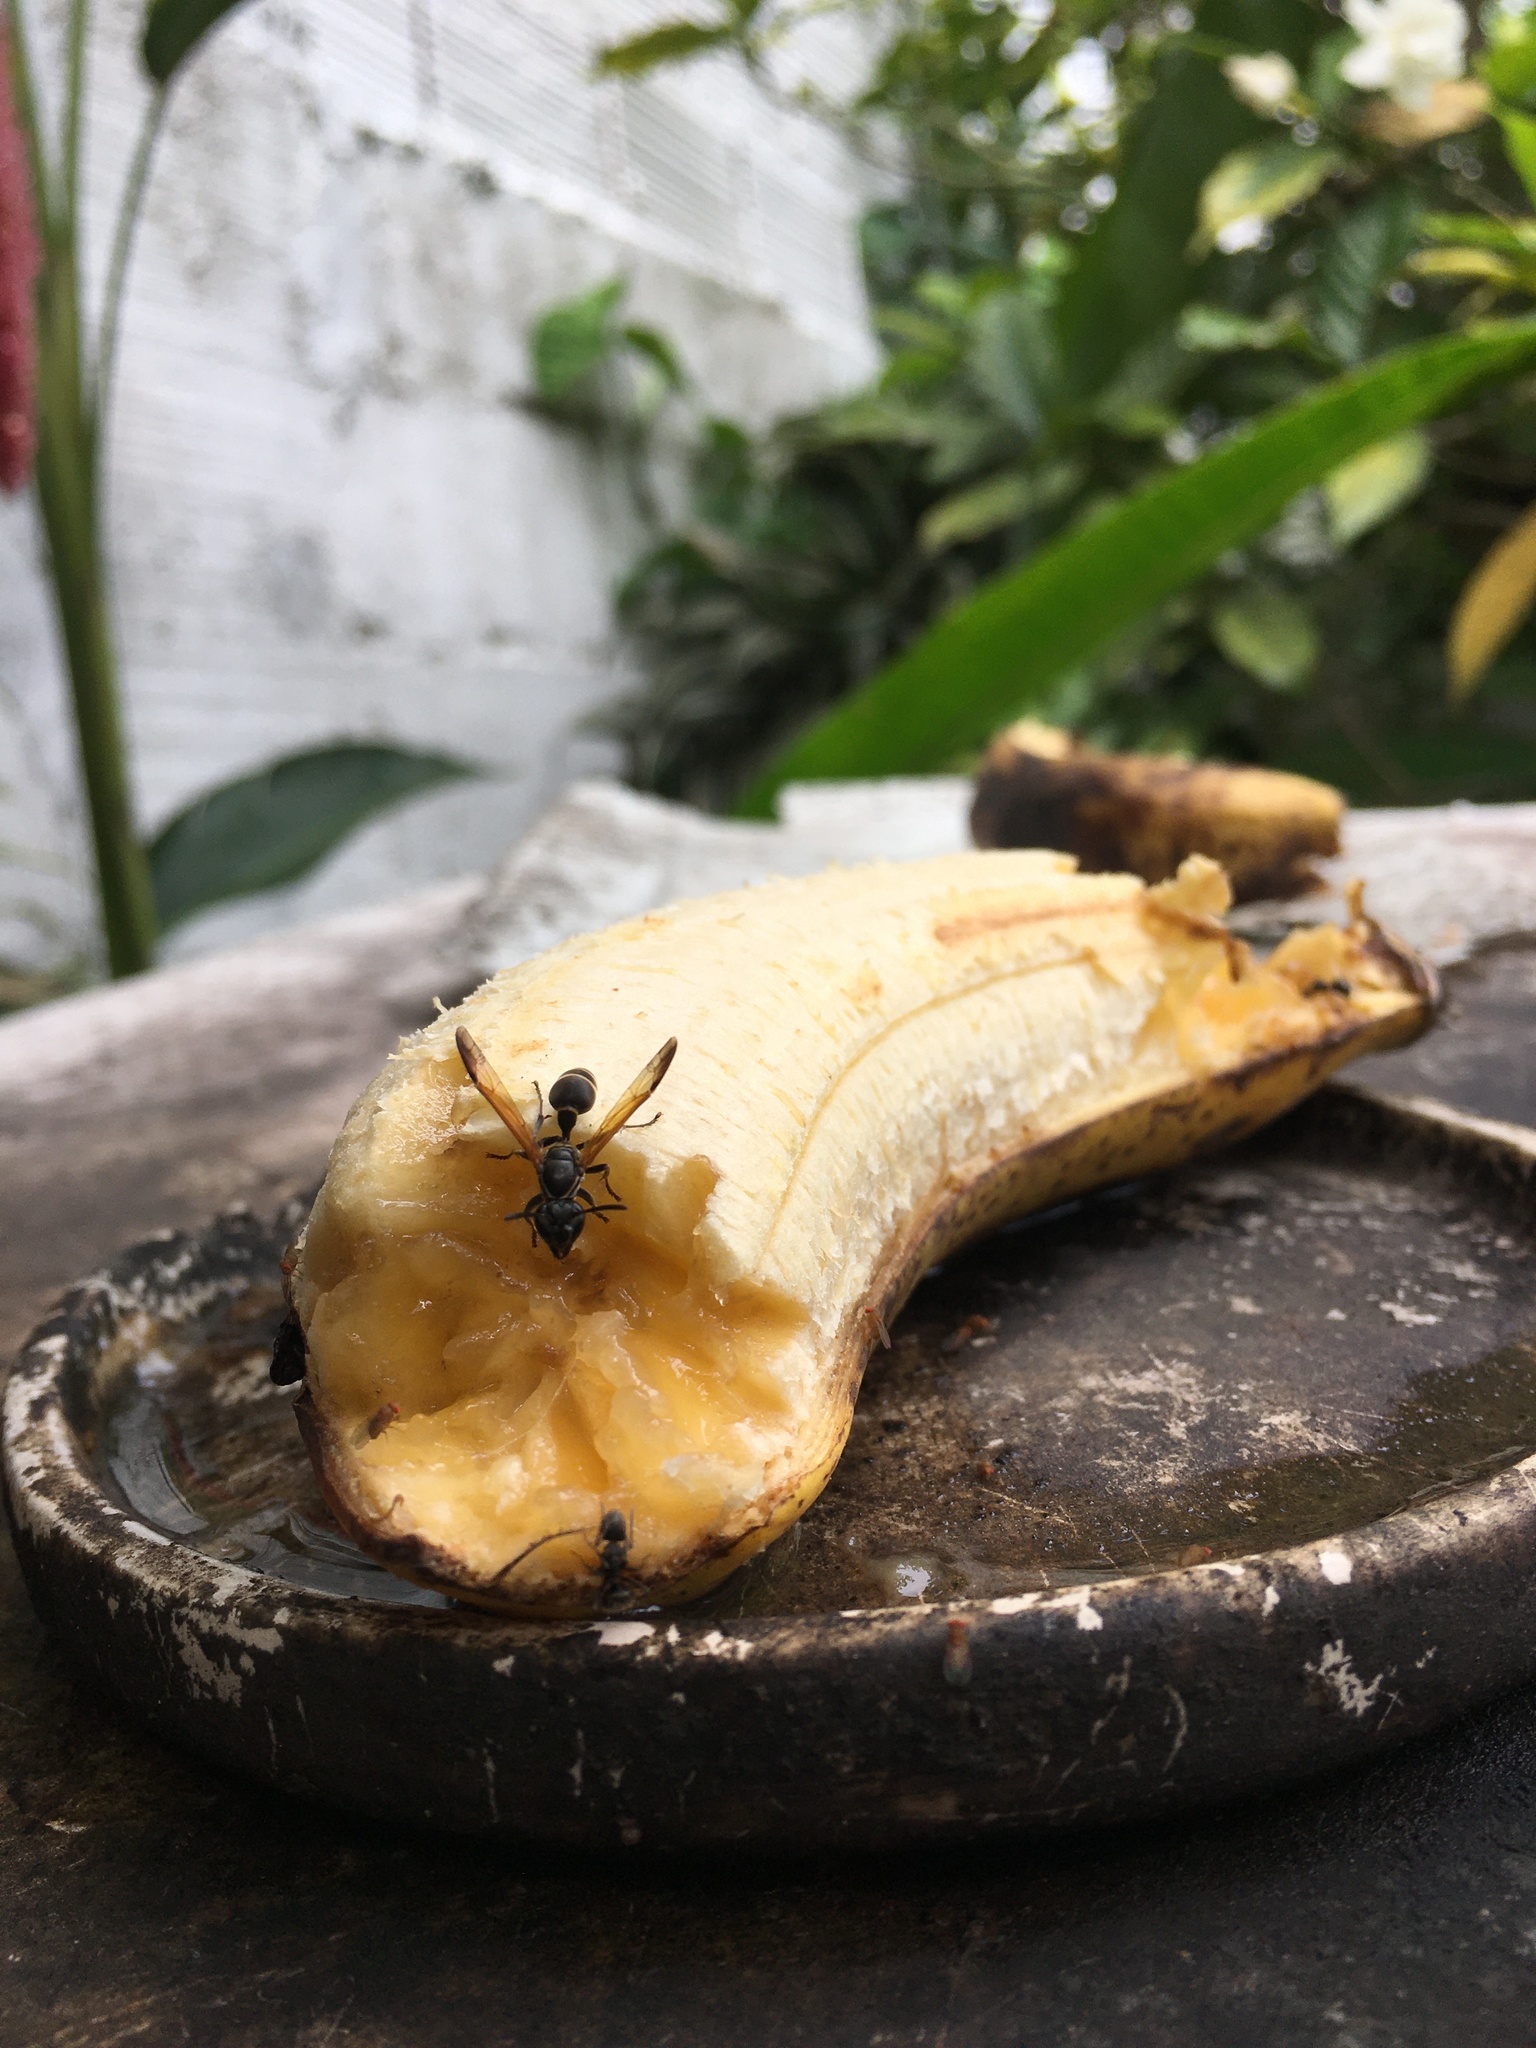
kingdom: Animalia
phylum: Arthropoda
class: Insecta
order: Hymenoptera
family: Eumenidae
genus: Polybia
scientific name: Polybia rejecta
